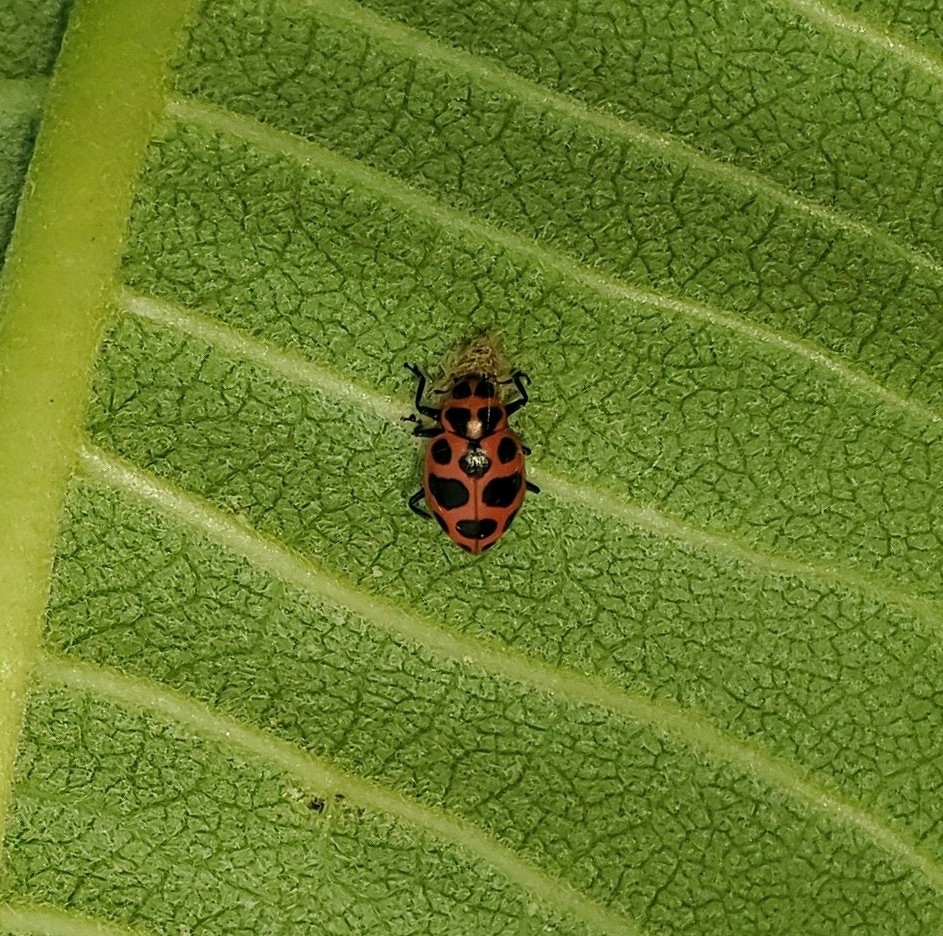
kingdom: Viruses
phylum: Pisuviricota
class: Pisoniviricetes
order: Picornavirales
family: Iflaviridae
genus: Iflavirus
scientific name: Iflavirus dinococcinellae
